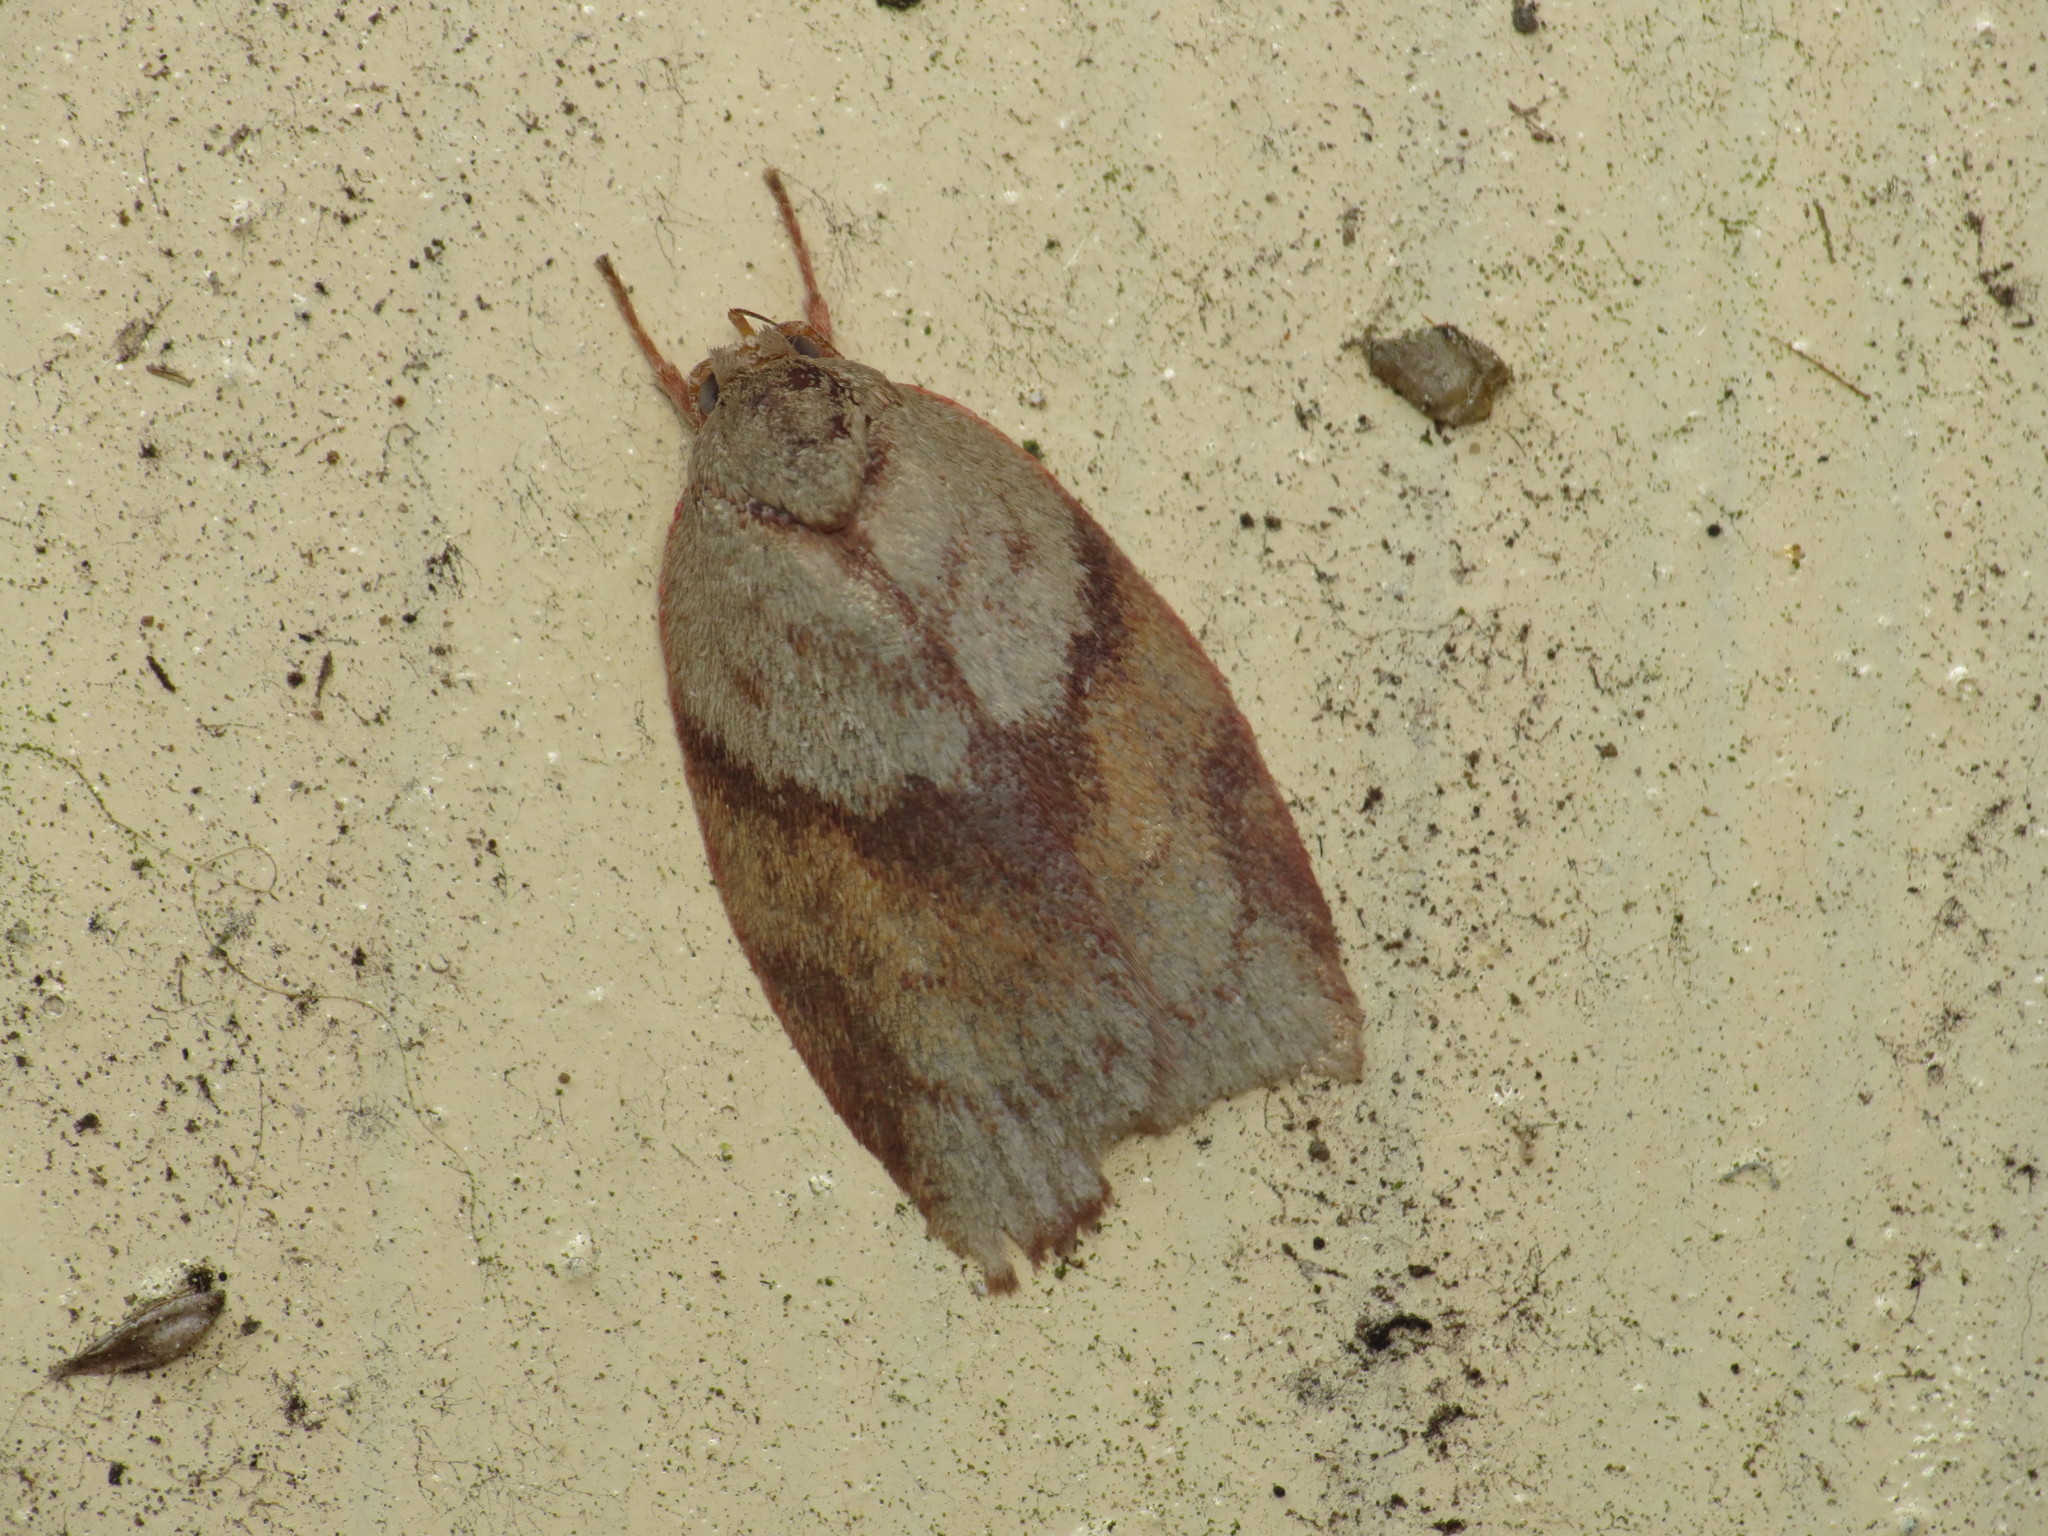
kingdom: Animalia
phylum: Arthropoda
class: Insecta
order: Lepidoptera
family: Oecophoridae
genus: Euchaetis
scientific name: Euchaetis crypsichroa
